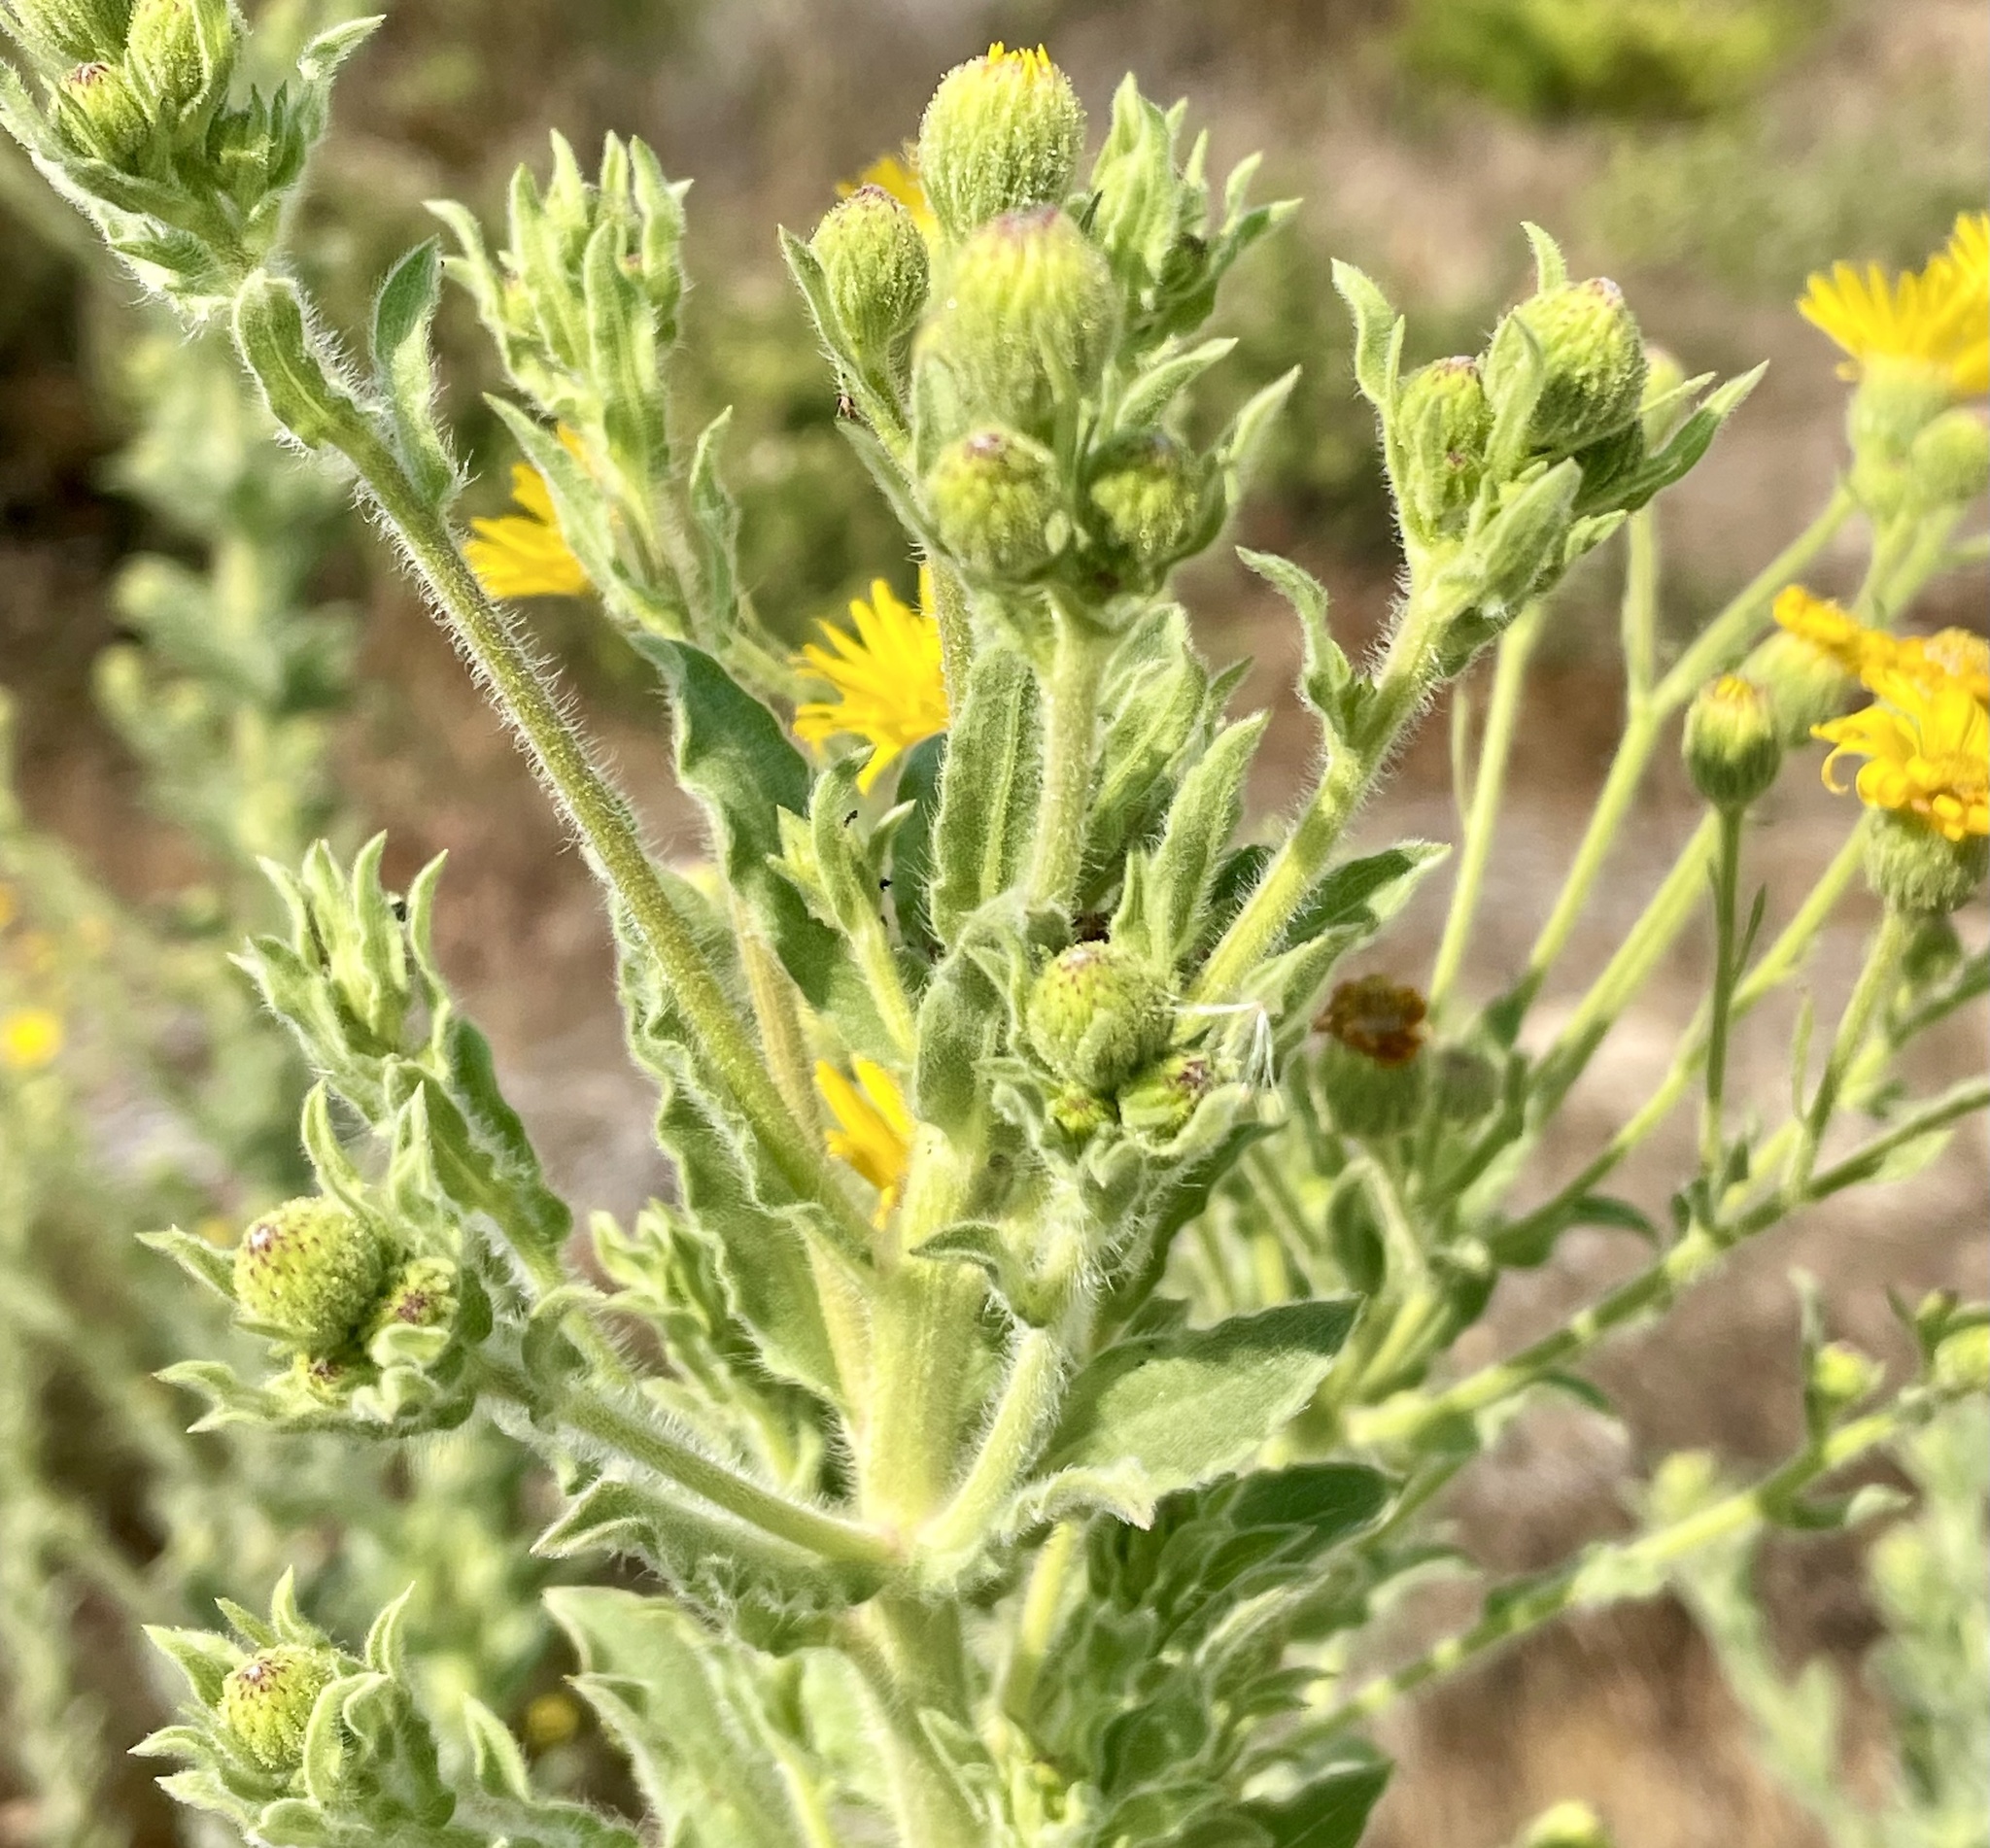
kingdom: Plantae
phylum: Tracheophyta
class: Magnoliopsida
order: Asterales
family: Asteraceae
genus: Heterotheca
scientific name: Heterotheca grandiflora
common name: Telegraphweed
